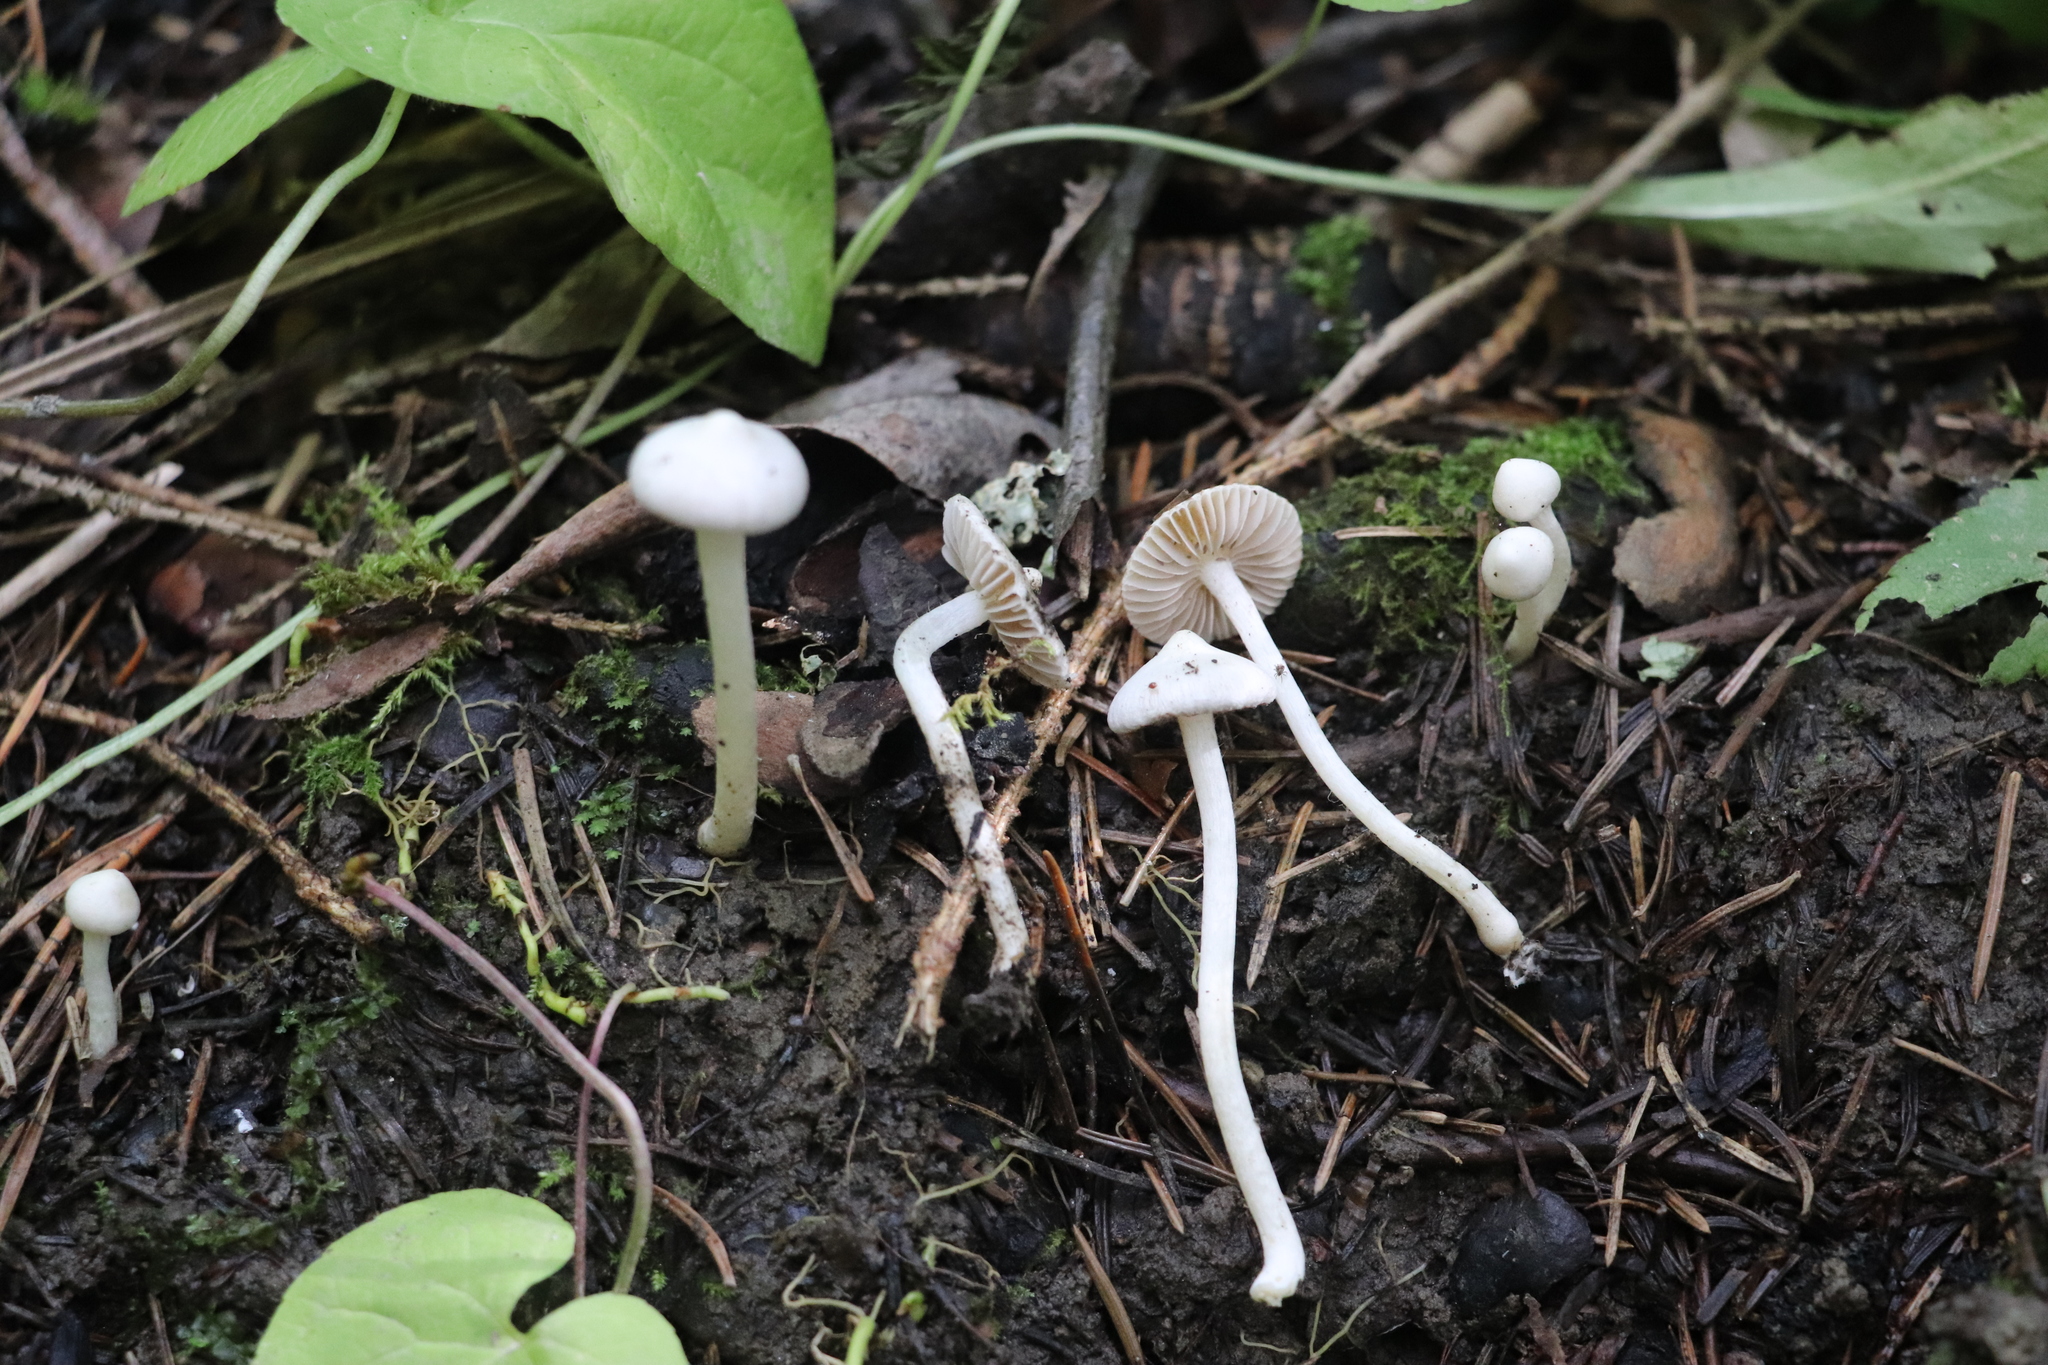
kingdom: Fungi
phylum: Basidiomycota
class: Agaricomycetes
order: Agaricales
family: Inocybaceae
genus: Inocybe
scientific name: Inocybe geophylla
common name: White fibrecap
